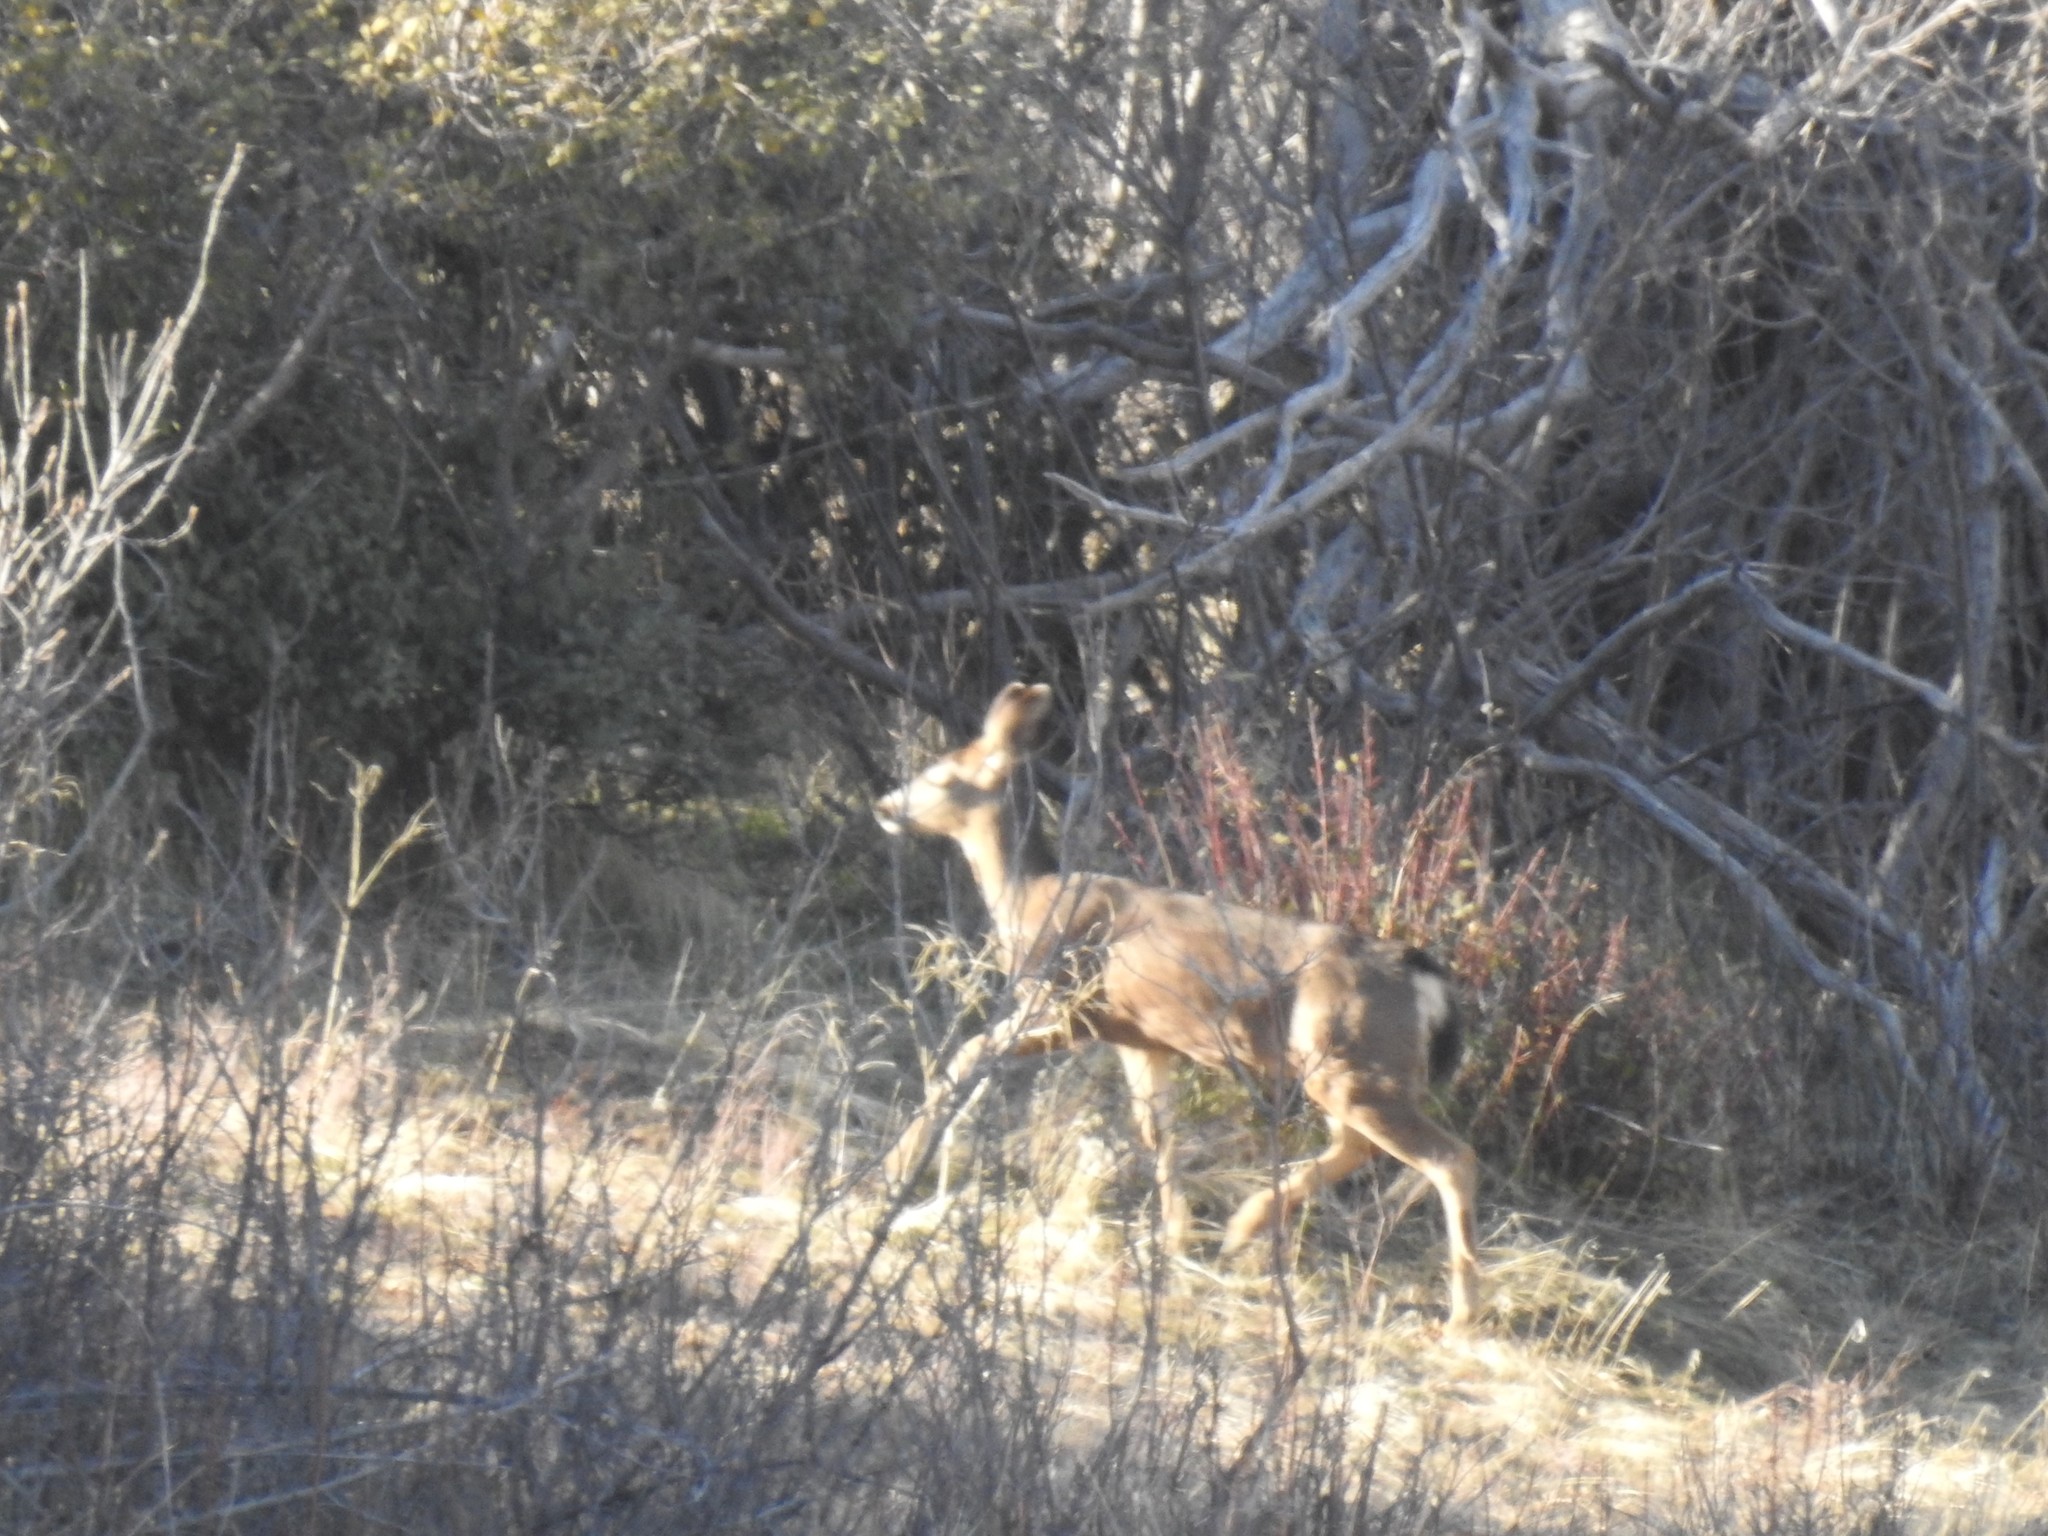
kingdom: Animalia
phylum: Chordata
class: Mammalia
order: Artiodactyla
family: Cervidae
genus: Odocoileus
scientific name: Odocoileus hemionus
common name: Mule deer
